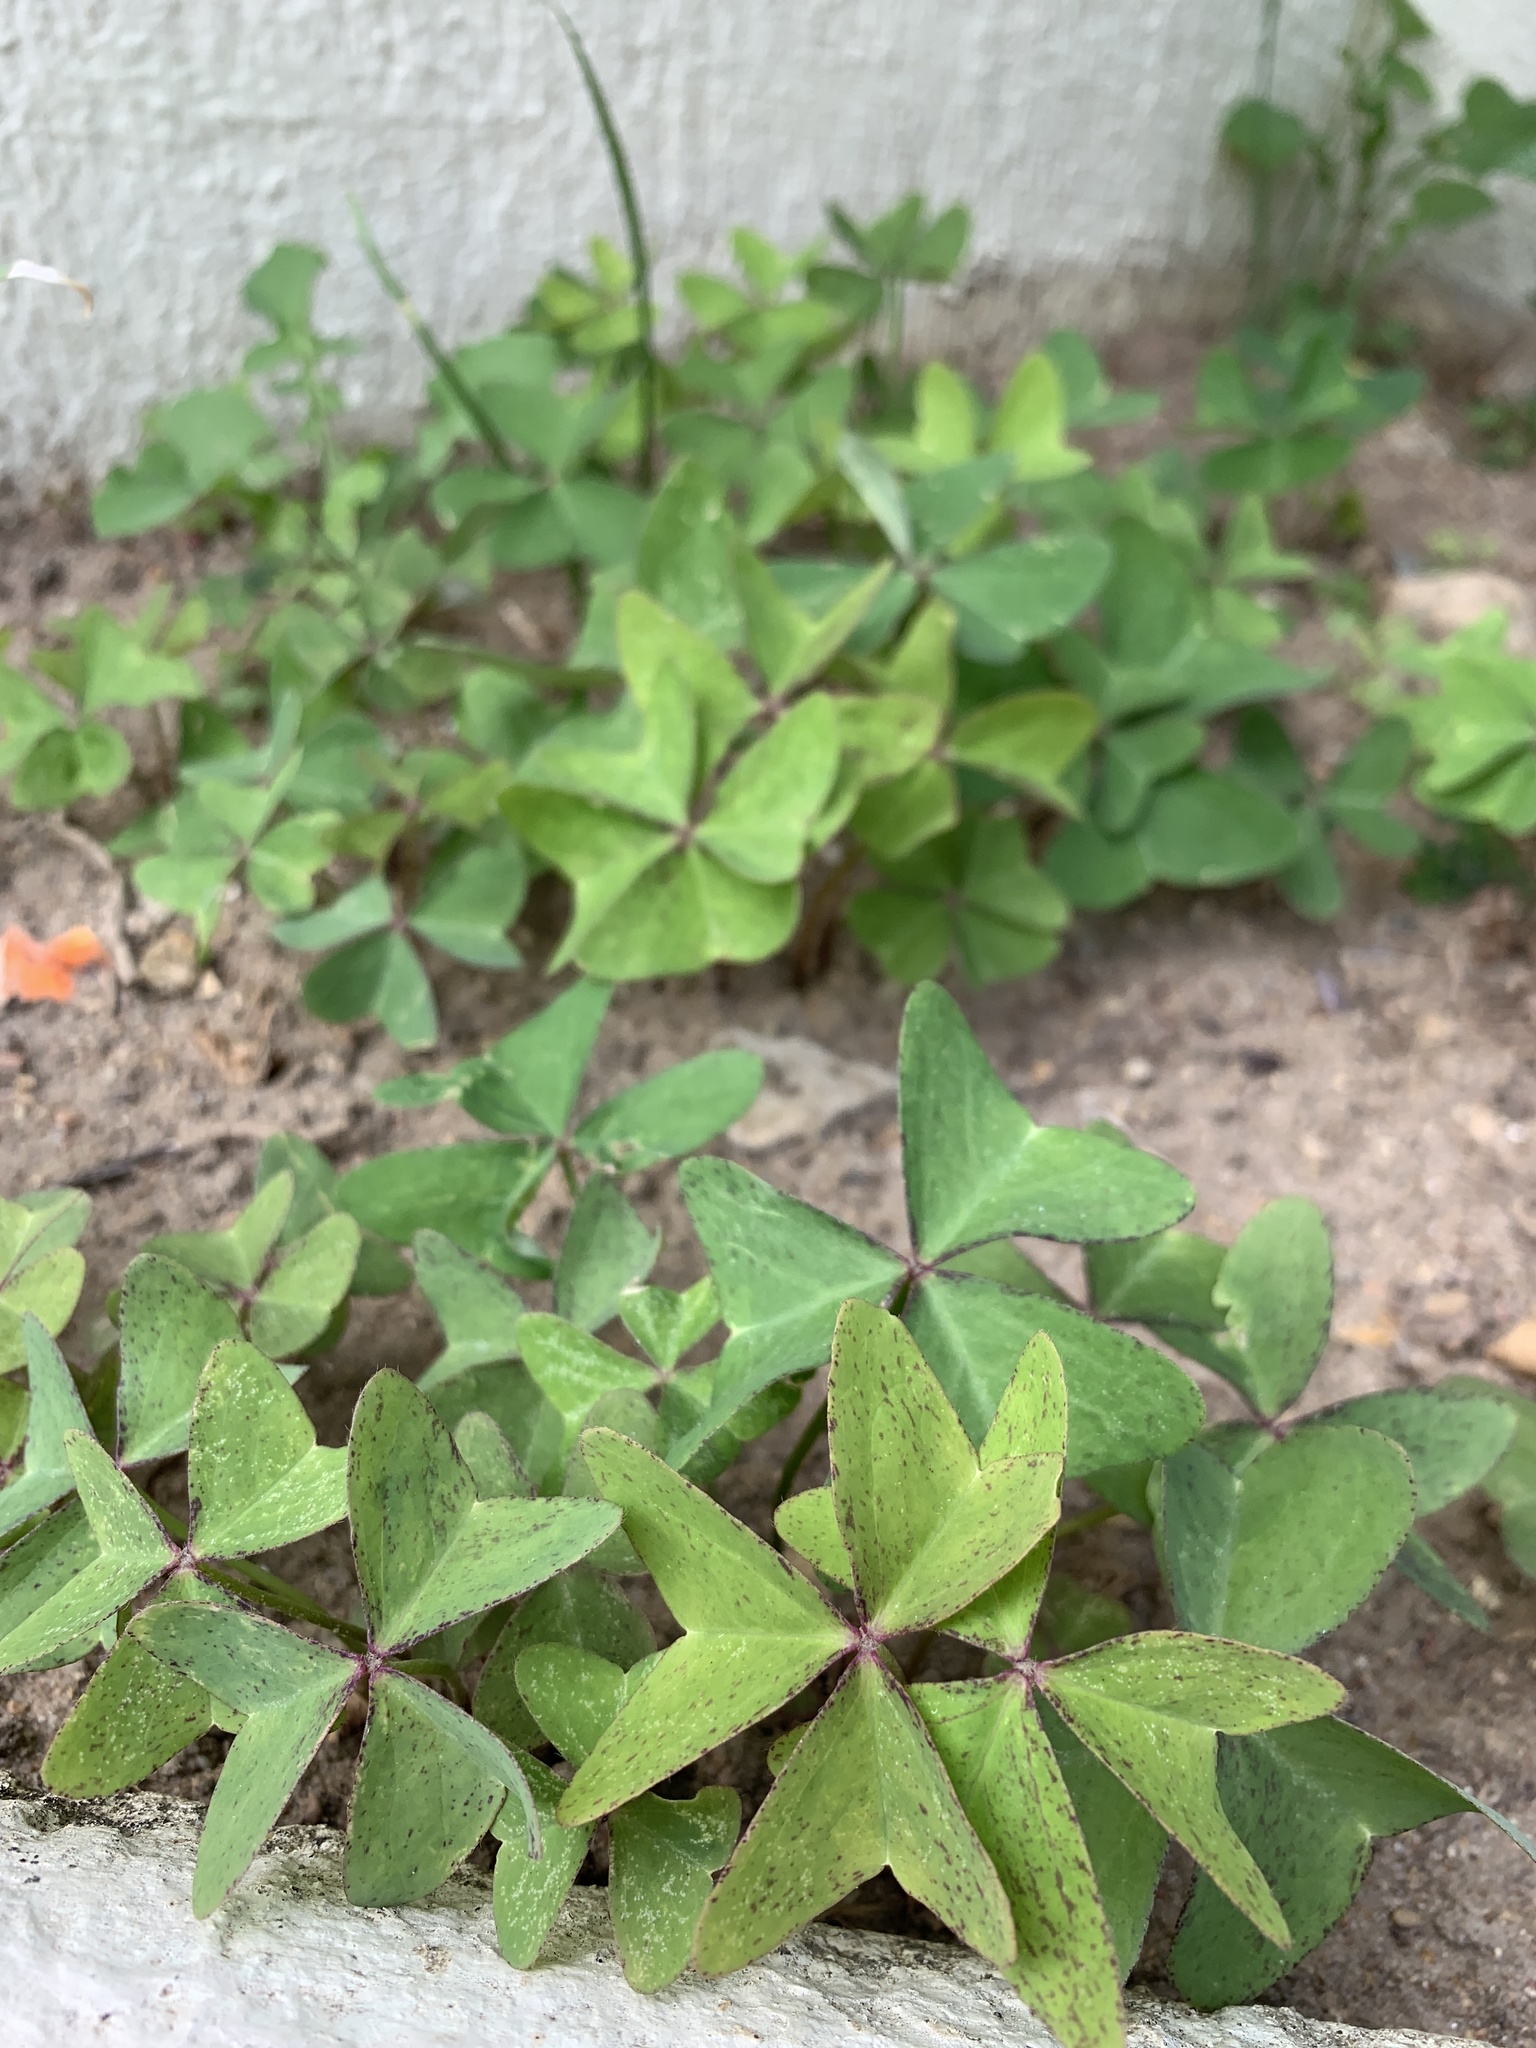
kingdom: Plantae
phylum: Tracheophyta
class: Magnoliopsida
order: Oxalidales
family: Oxalidaceae
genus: Oxalis
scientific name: Oxalis latifolia
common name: Garden pink-sorrel
